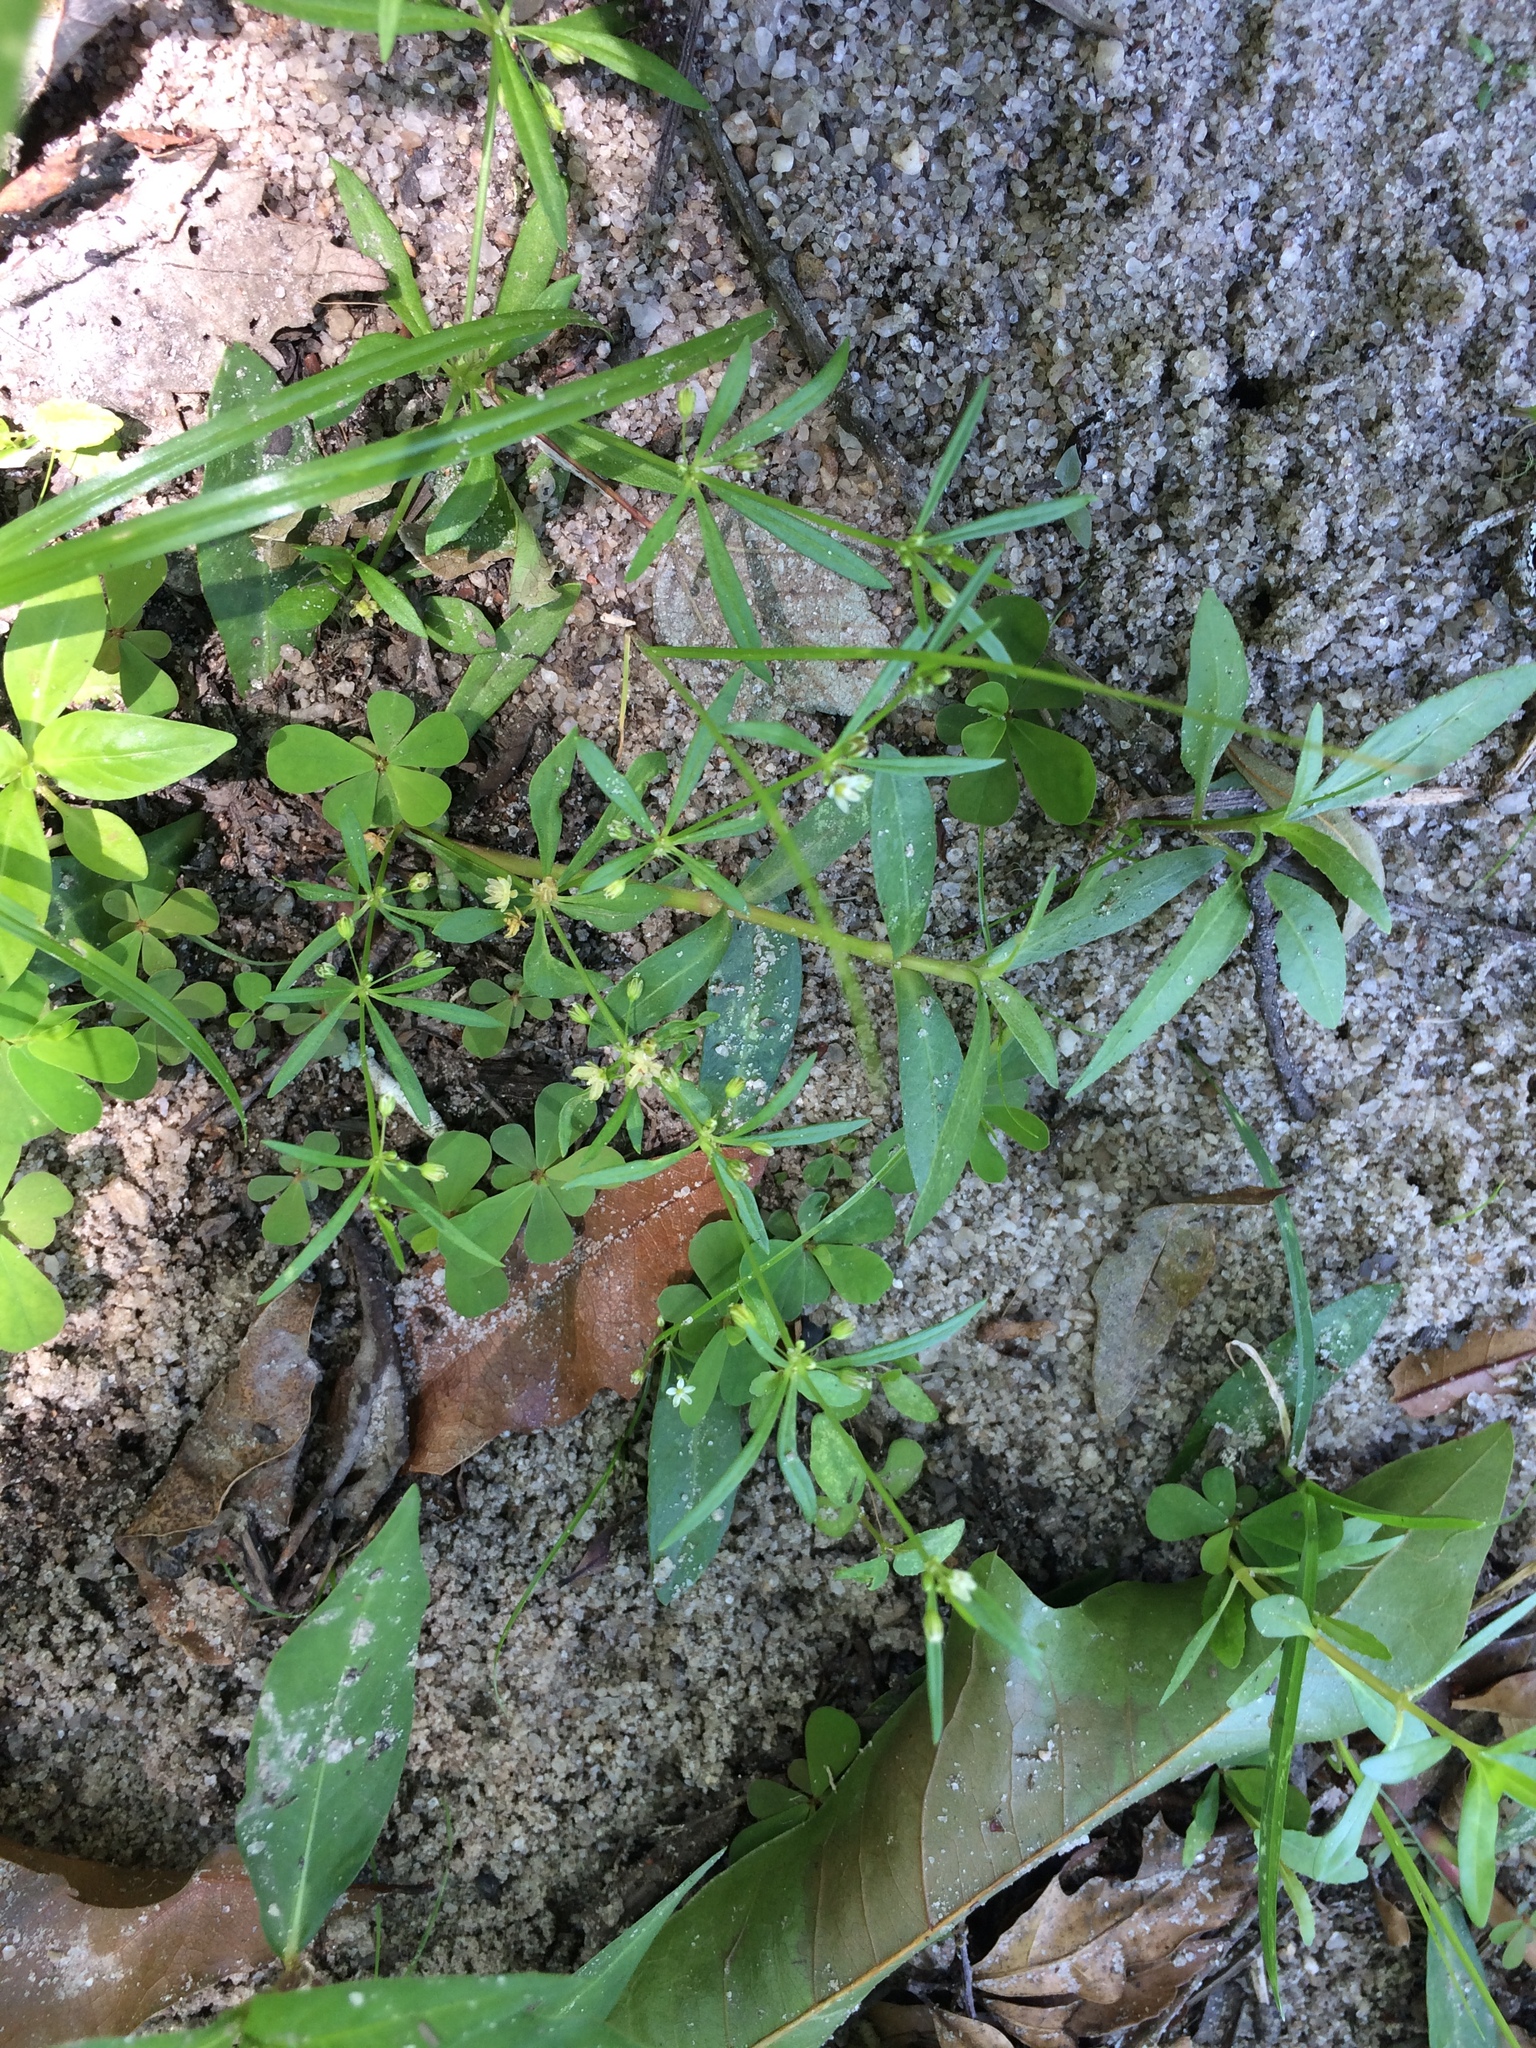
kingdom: Plantae
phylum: Tracheophyta
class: Magnoliopsida
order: Caryophyllales
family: Molluginaceae
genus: Mollugo
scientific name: Mollugo verticillata
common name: Green carpetweed
